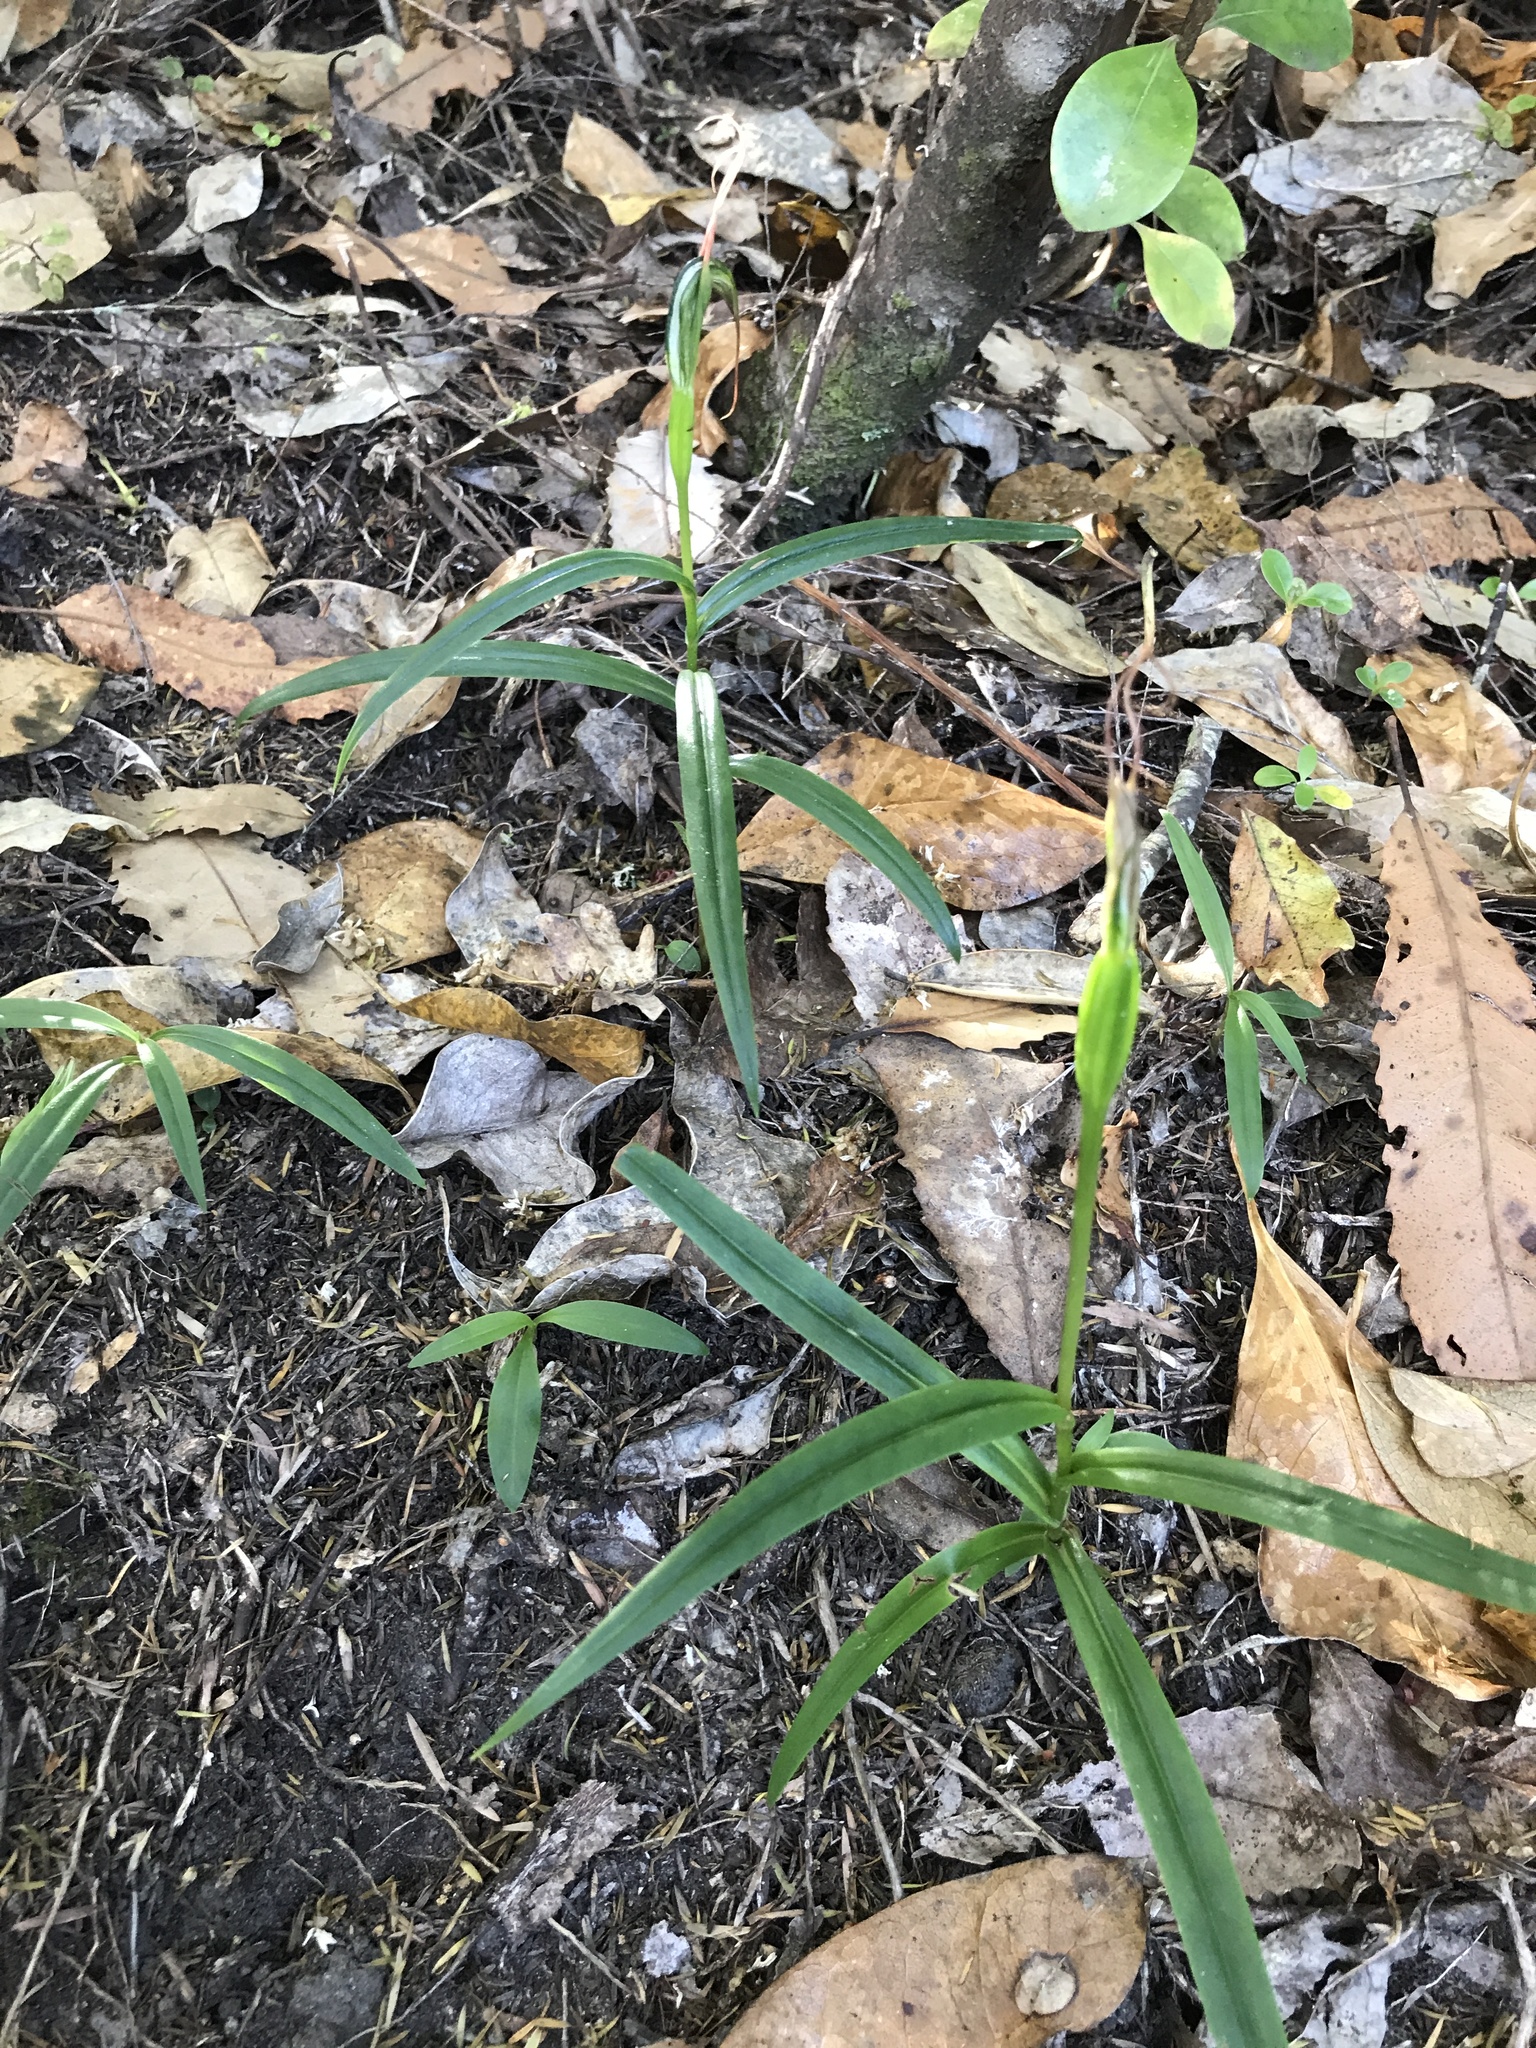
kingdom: Plantae
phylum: Tracheophyta
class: Liliopsida
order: Asparagales
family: Orchidaceae
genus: Pterostylis
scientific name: Pterostylis banksii
